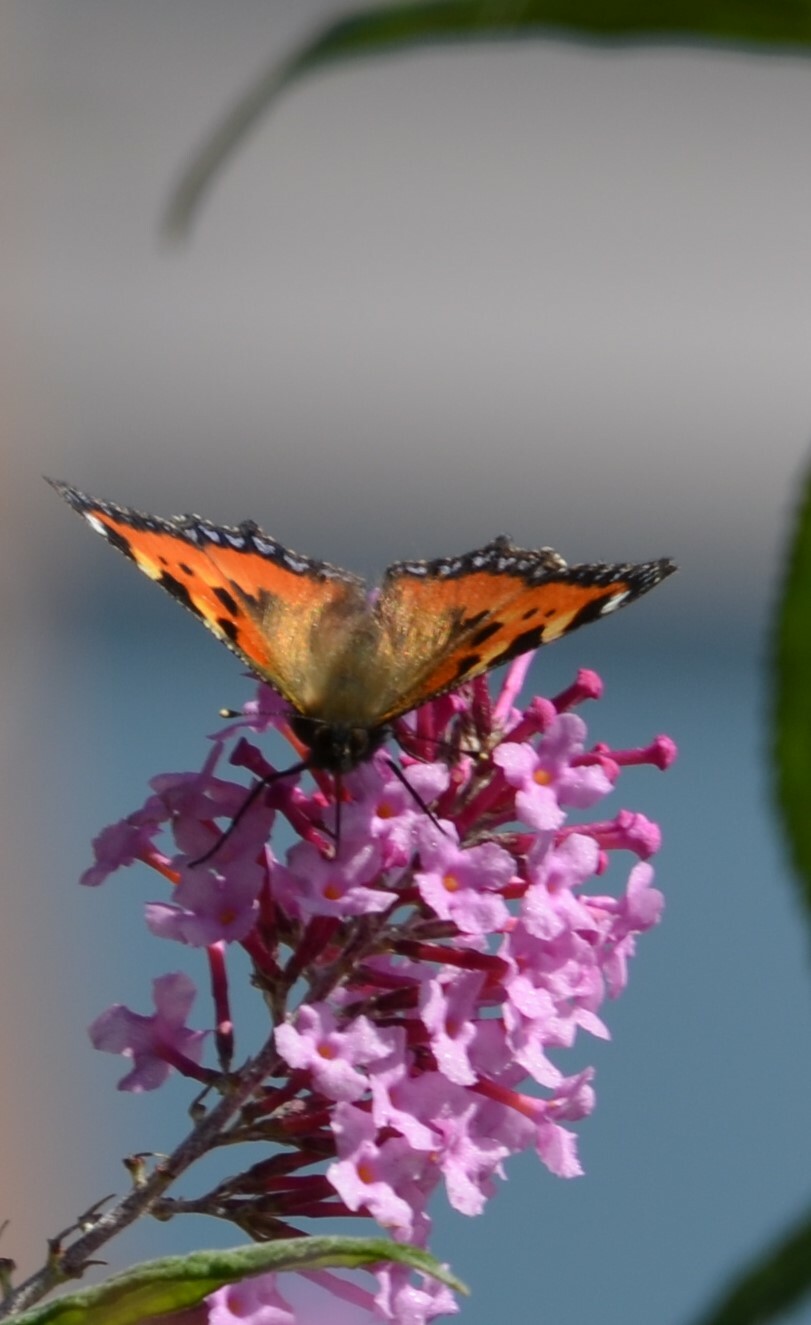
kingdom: Animalia
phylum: Arthropoda
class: Insecta
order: Lepidoptera
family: Nymphalidae
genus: Aglais
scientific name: Aglais urticae
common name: Small tortoiseshell
